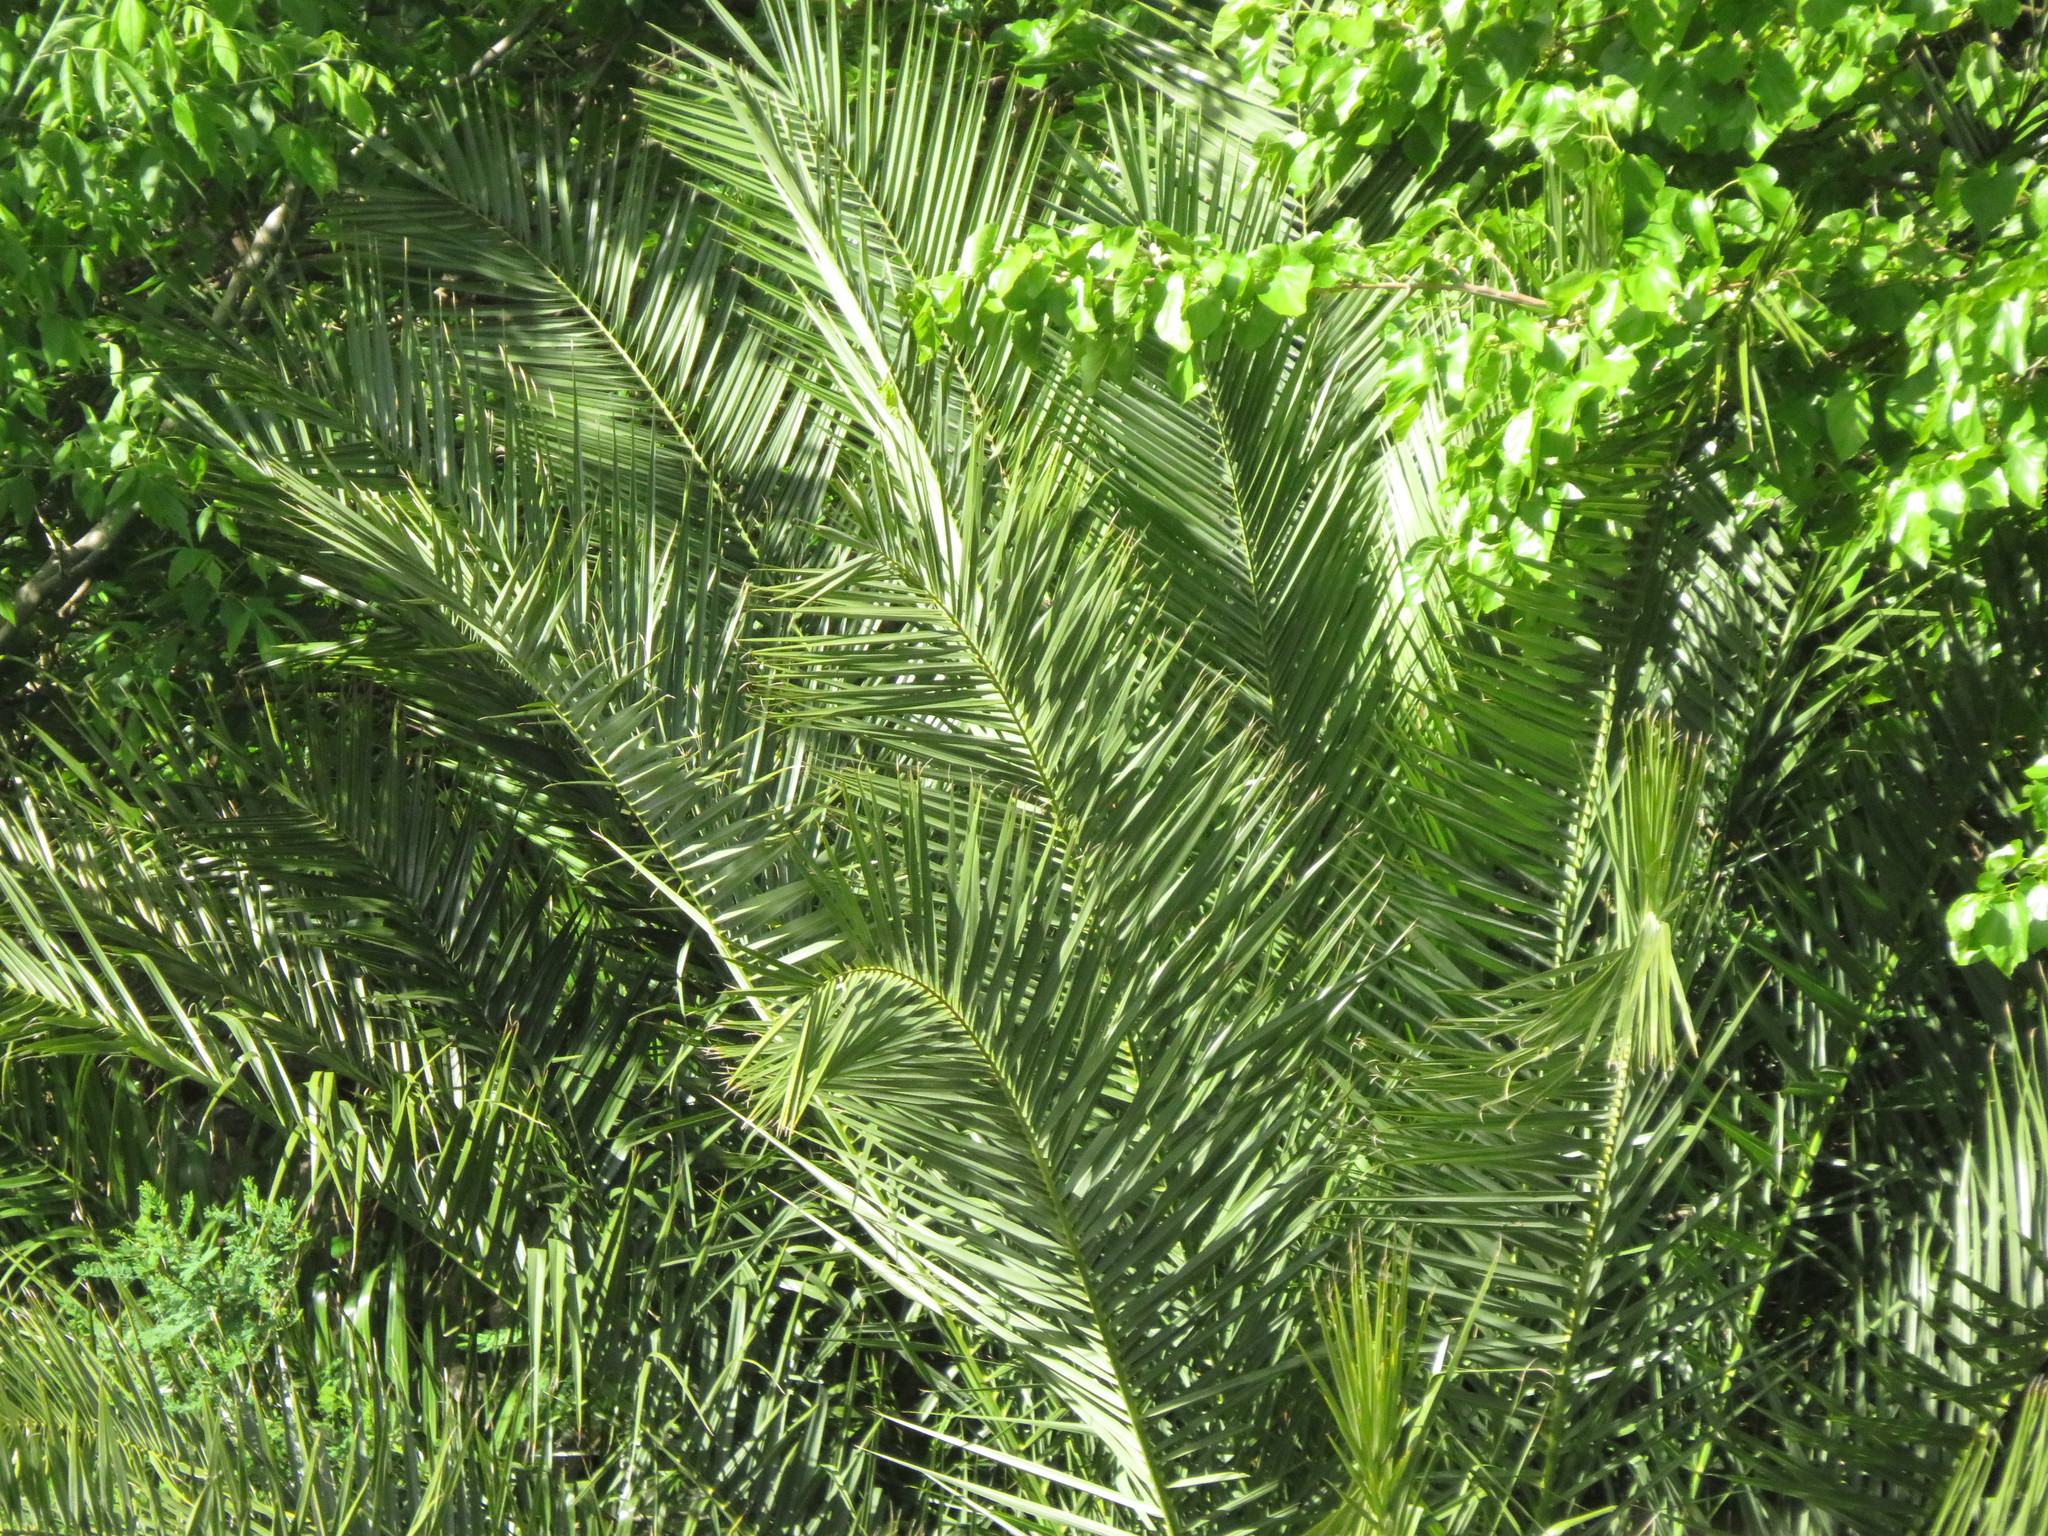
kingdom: Plantae
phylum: Tracheophyta
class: Liliopsida
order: Arecales
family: Arecaceae
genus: Phoenix
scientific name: Phoenix canariensis
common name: Canary island date palm
